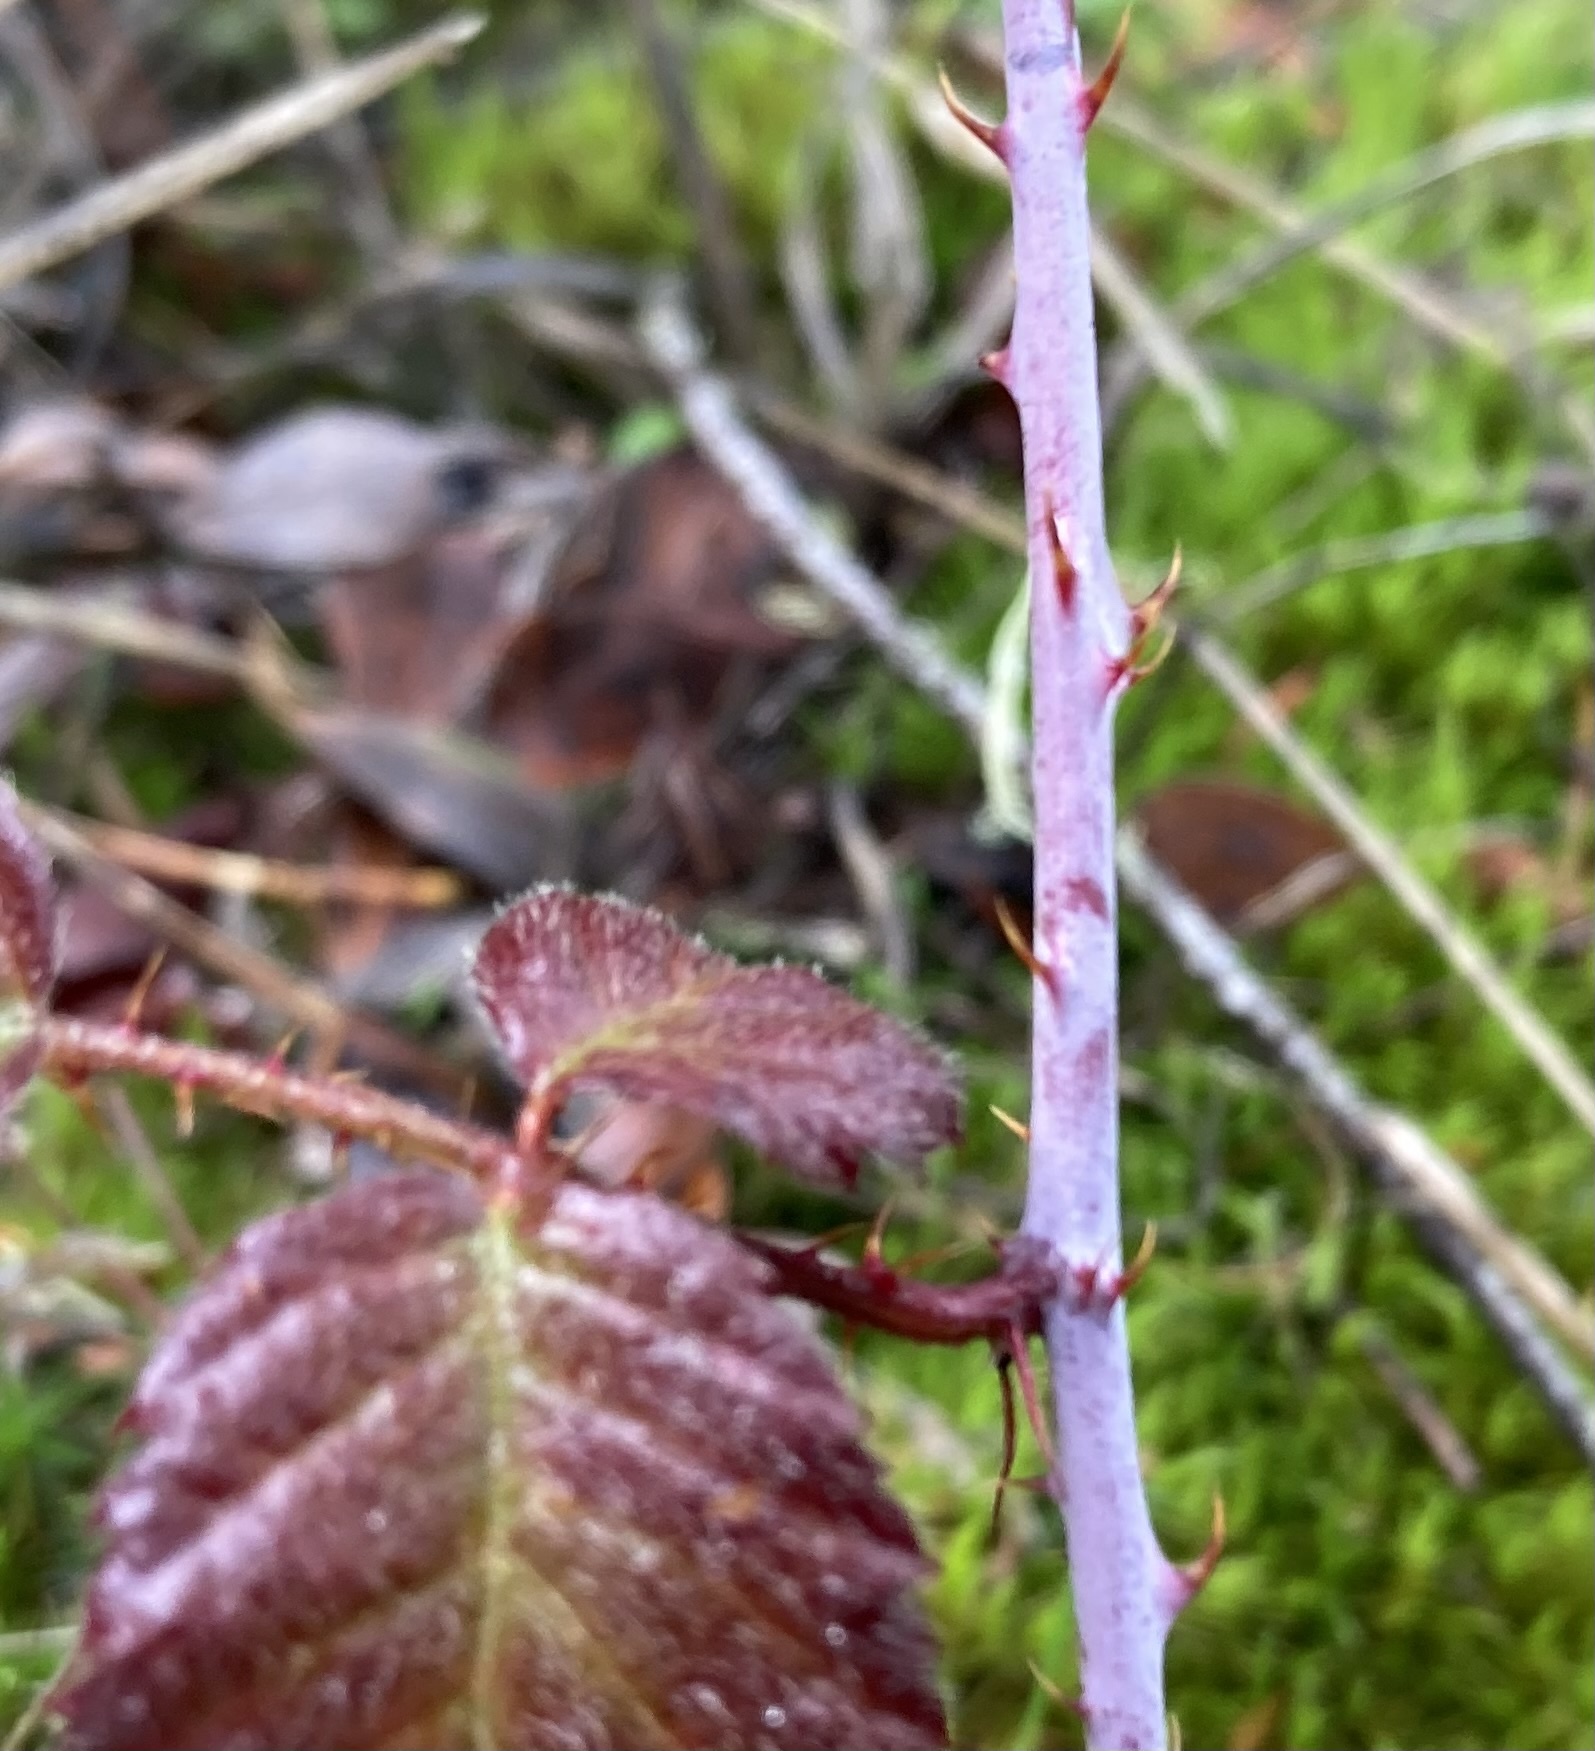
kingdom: Plantae
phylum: Tracheophyta
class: Magnoliopsida
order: Rosales
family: Rosaceae
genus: Rubus
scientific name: Rubus ursinus
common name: Pacific blackberry
